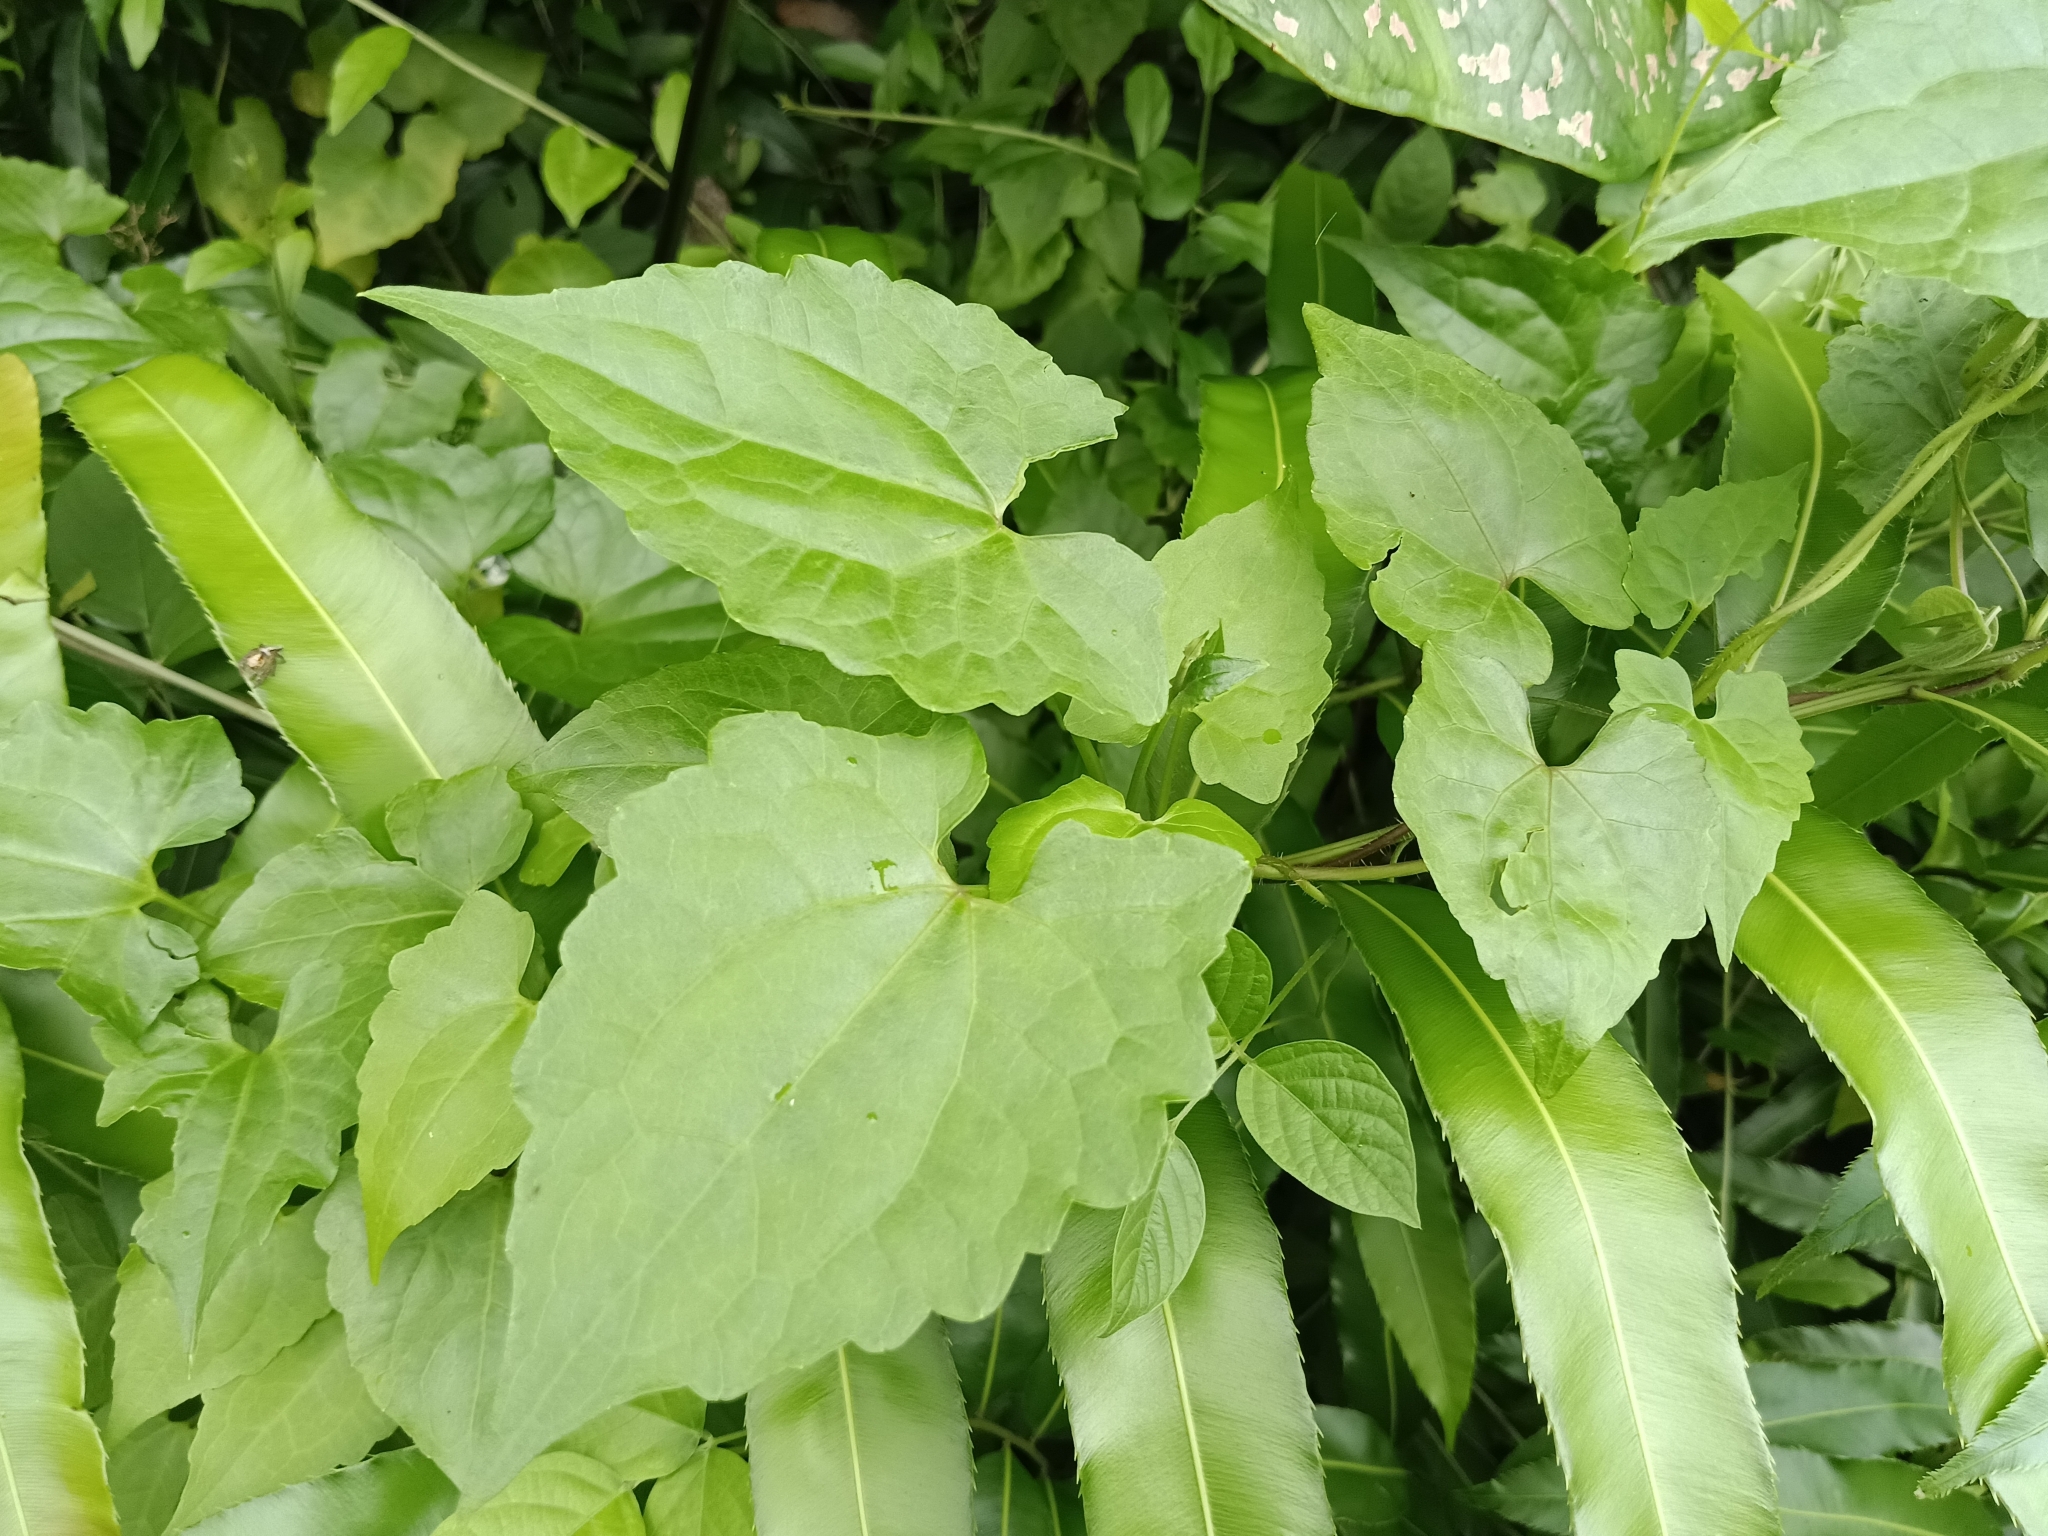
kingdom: Plantae
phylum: Tracheophyta
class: Magnoliopsida
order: Asterales
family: Asteraceae
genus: Mikania
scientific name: Mikania micrantha
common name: Mile-a-minute
